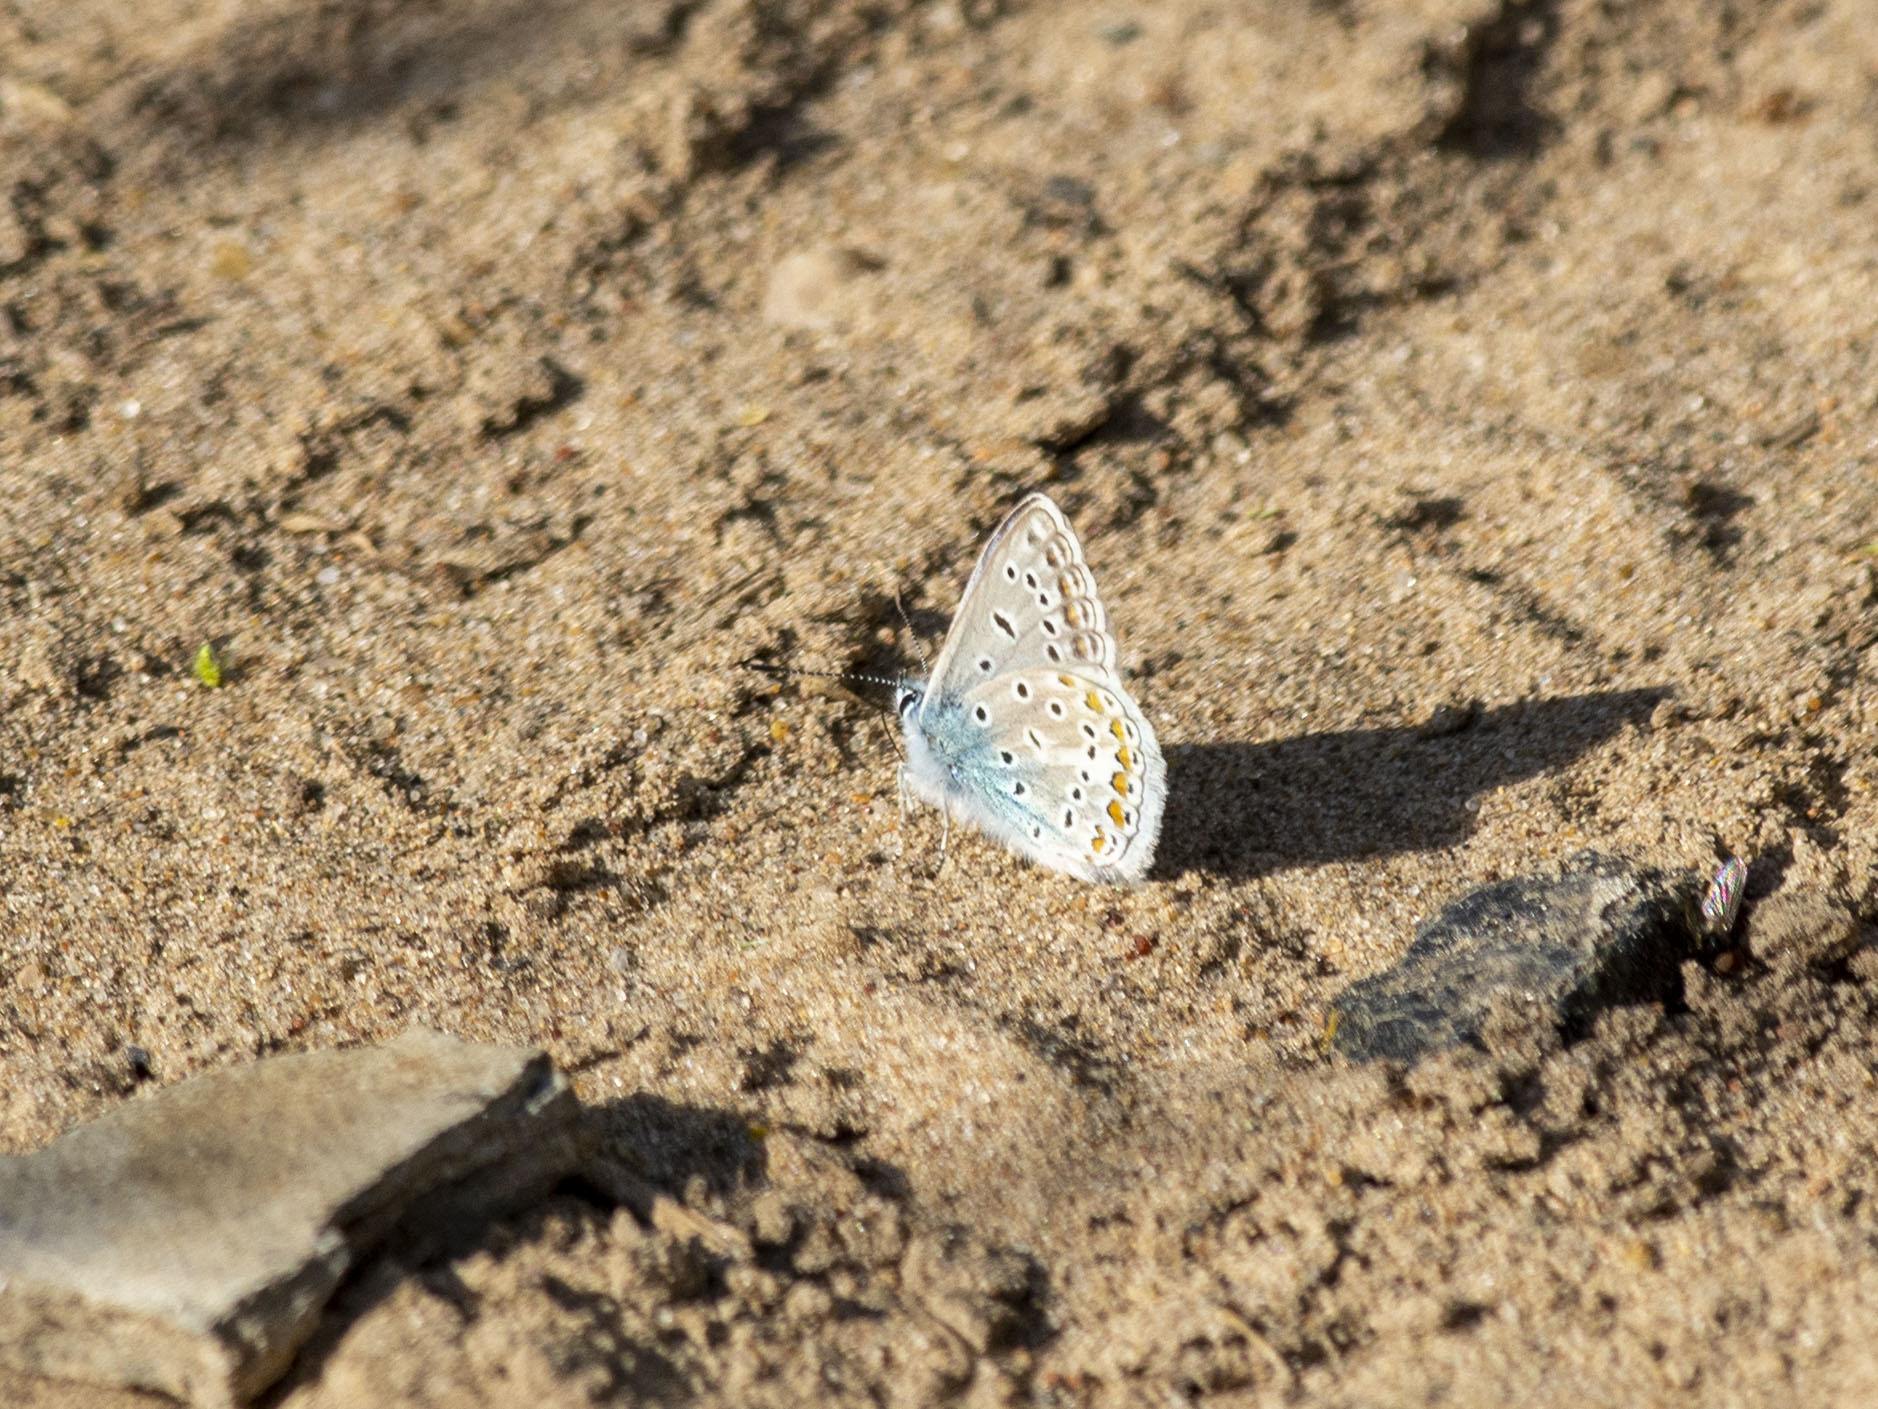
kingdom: Animalia
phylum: Arthropoda
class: Insecta
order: Lepidoptera
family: Lycaenidae
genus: Polyommatus
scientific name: Polyommatus icarus
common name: Common blue
